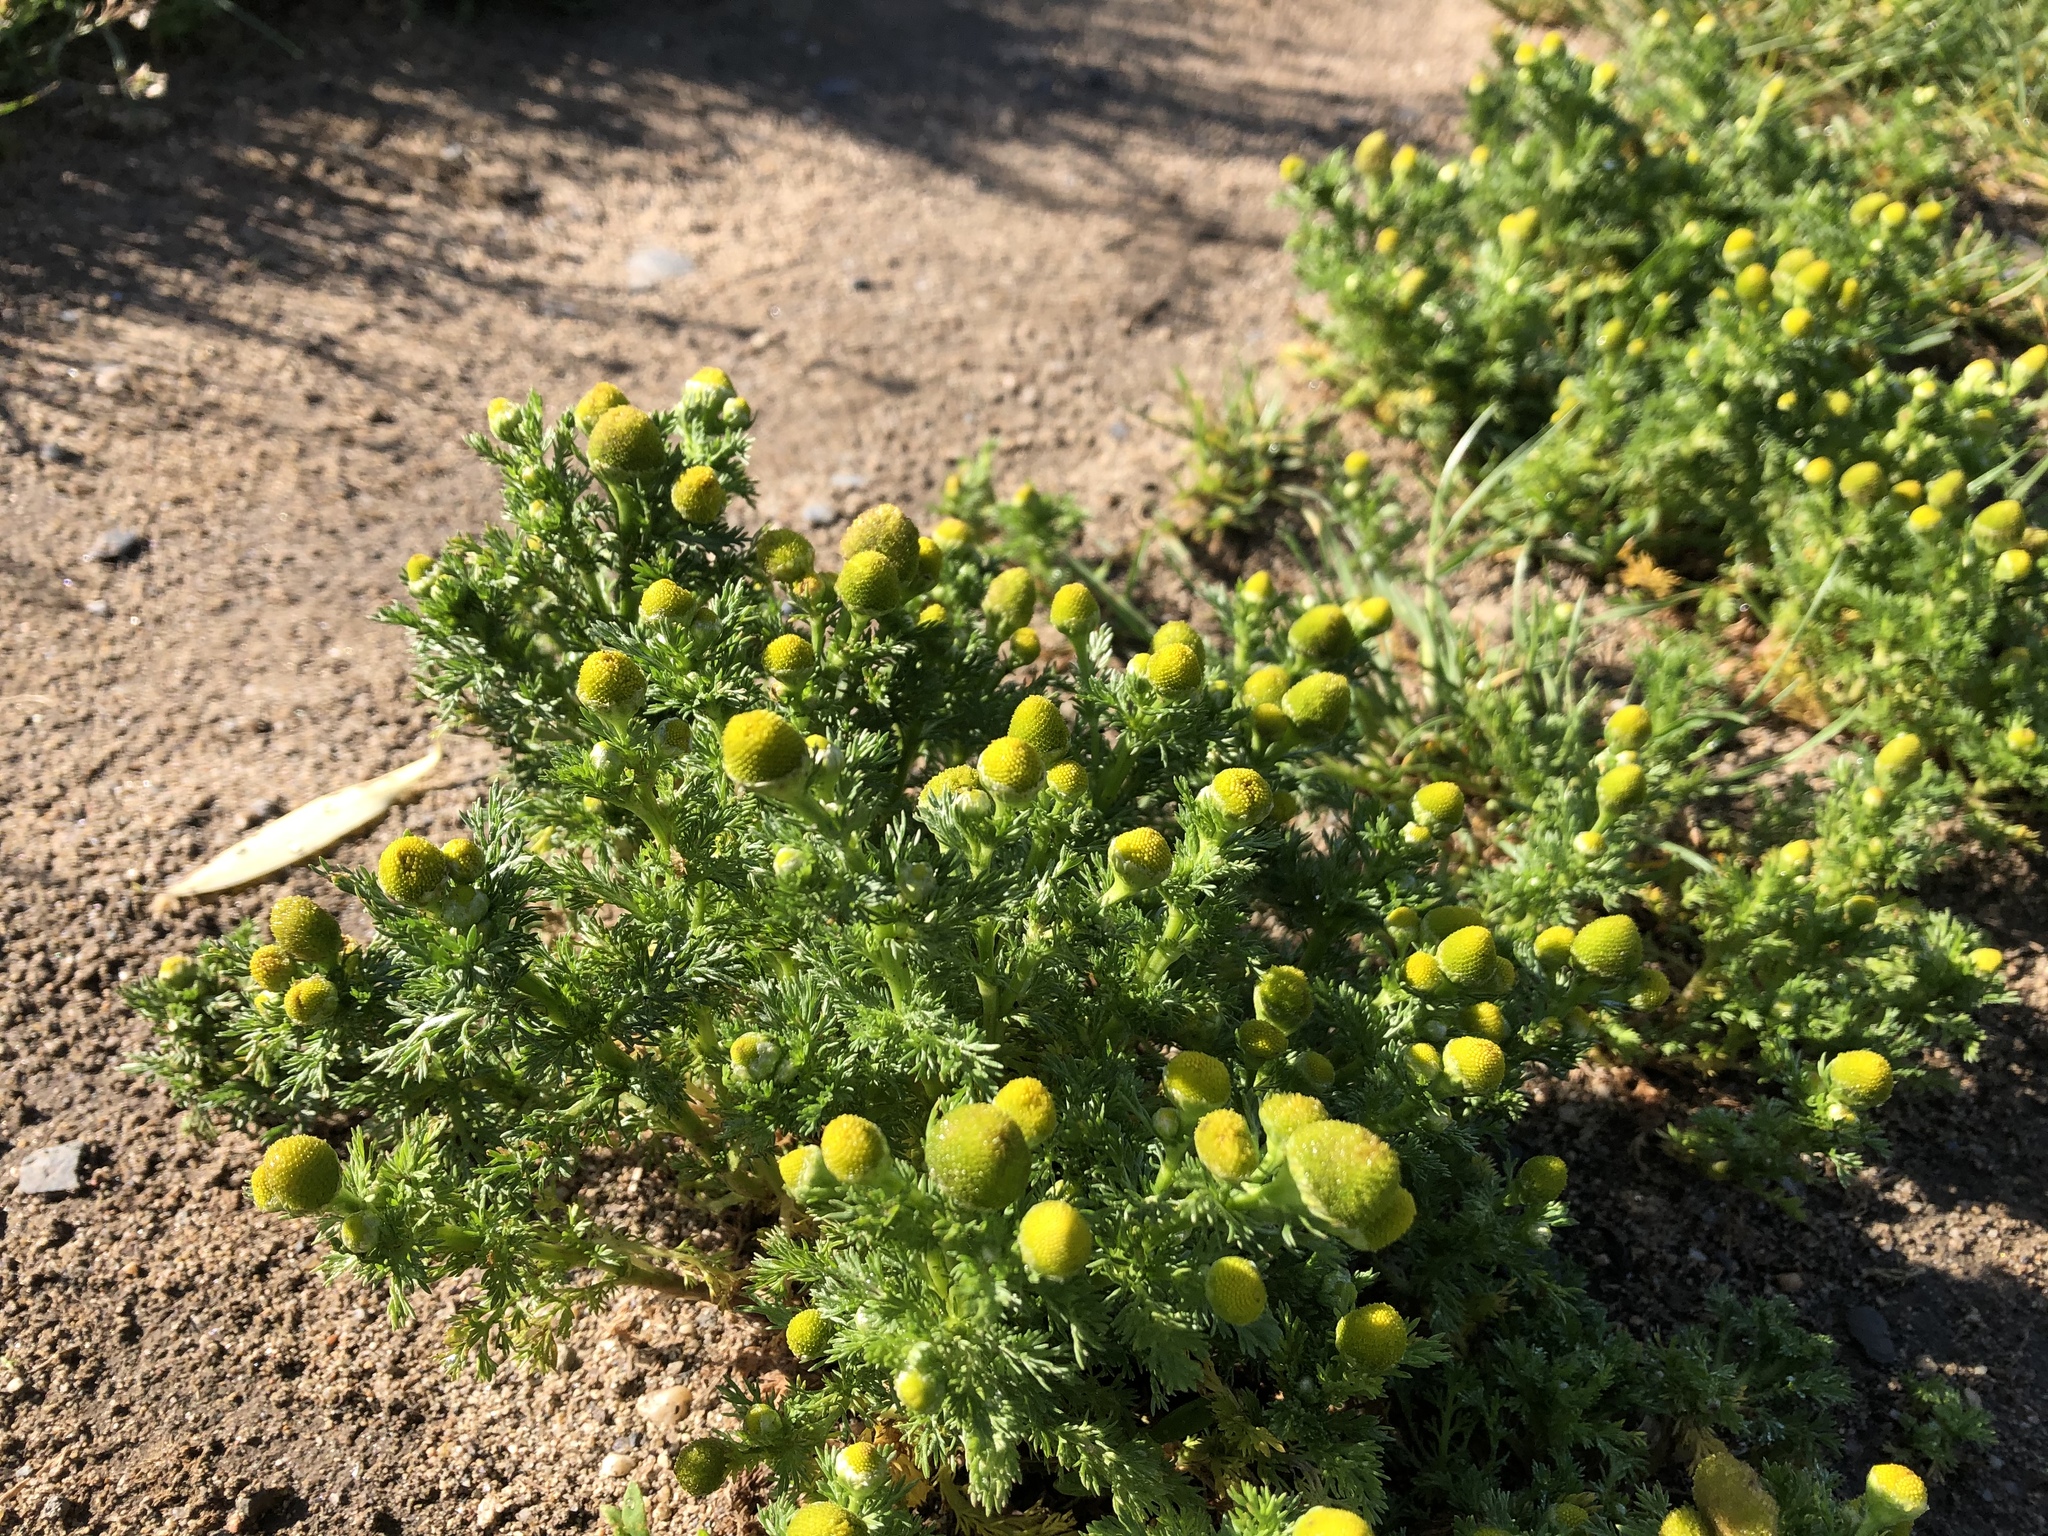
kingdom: Plantae
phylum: Tracheophyta
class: Magnoliopsida
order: Asterales
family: Asteraceae
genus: Matricaria
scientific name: Matricaria discoidea
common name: Disc mayweed
